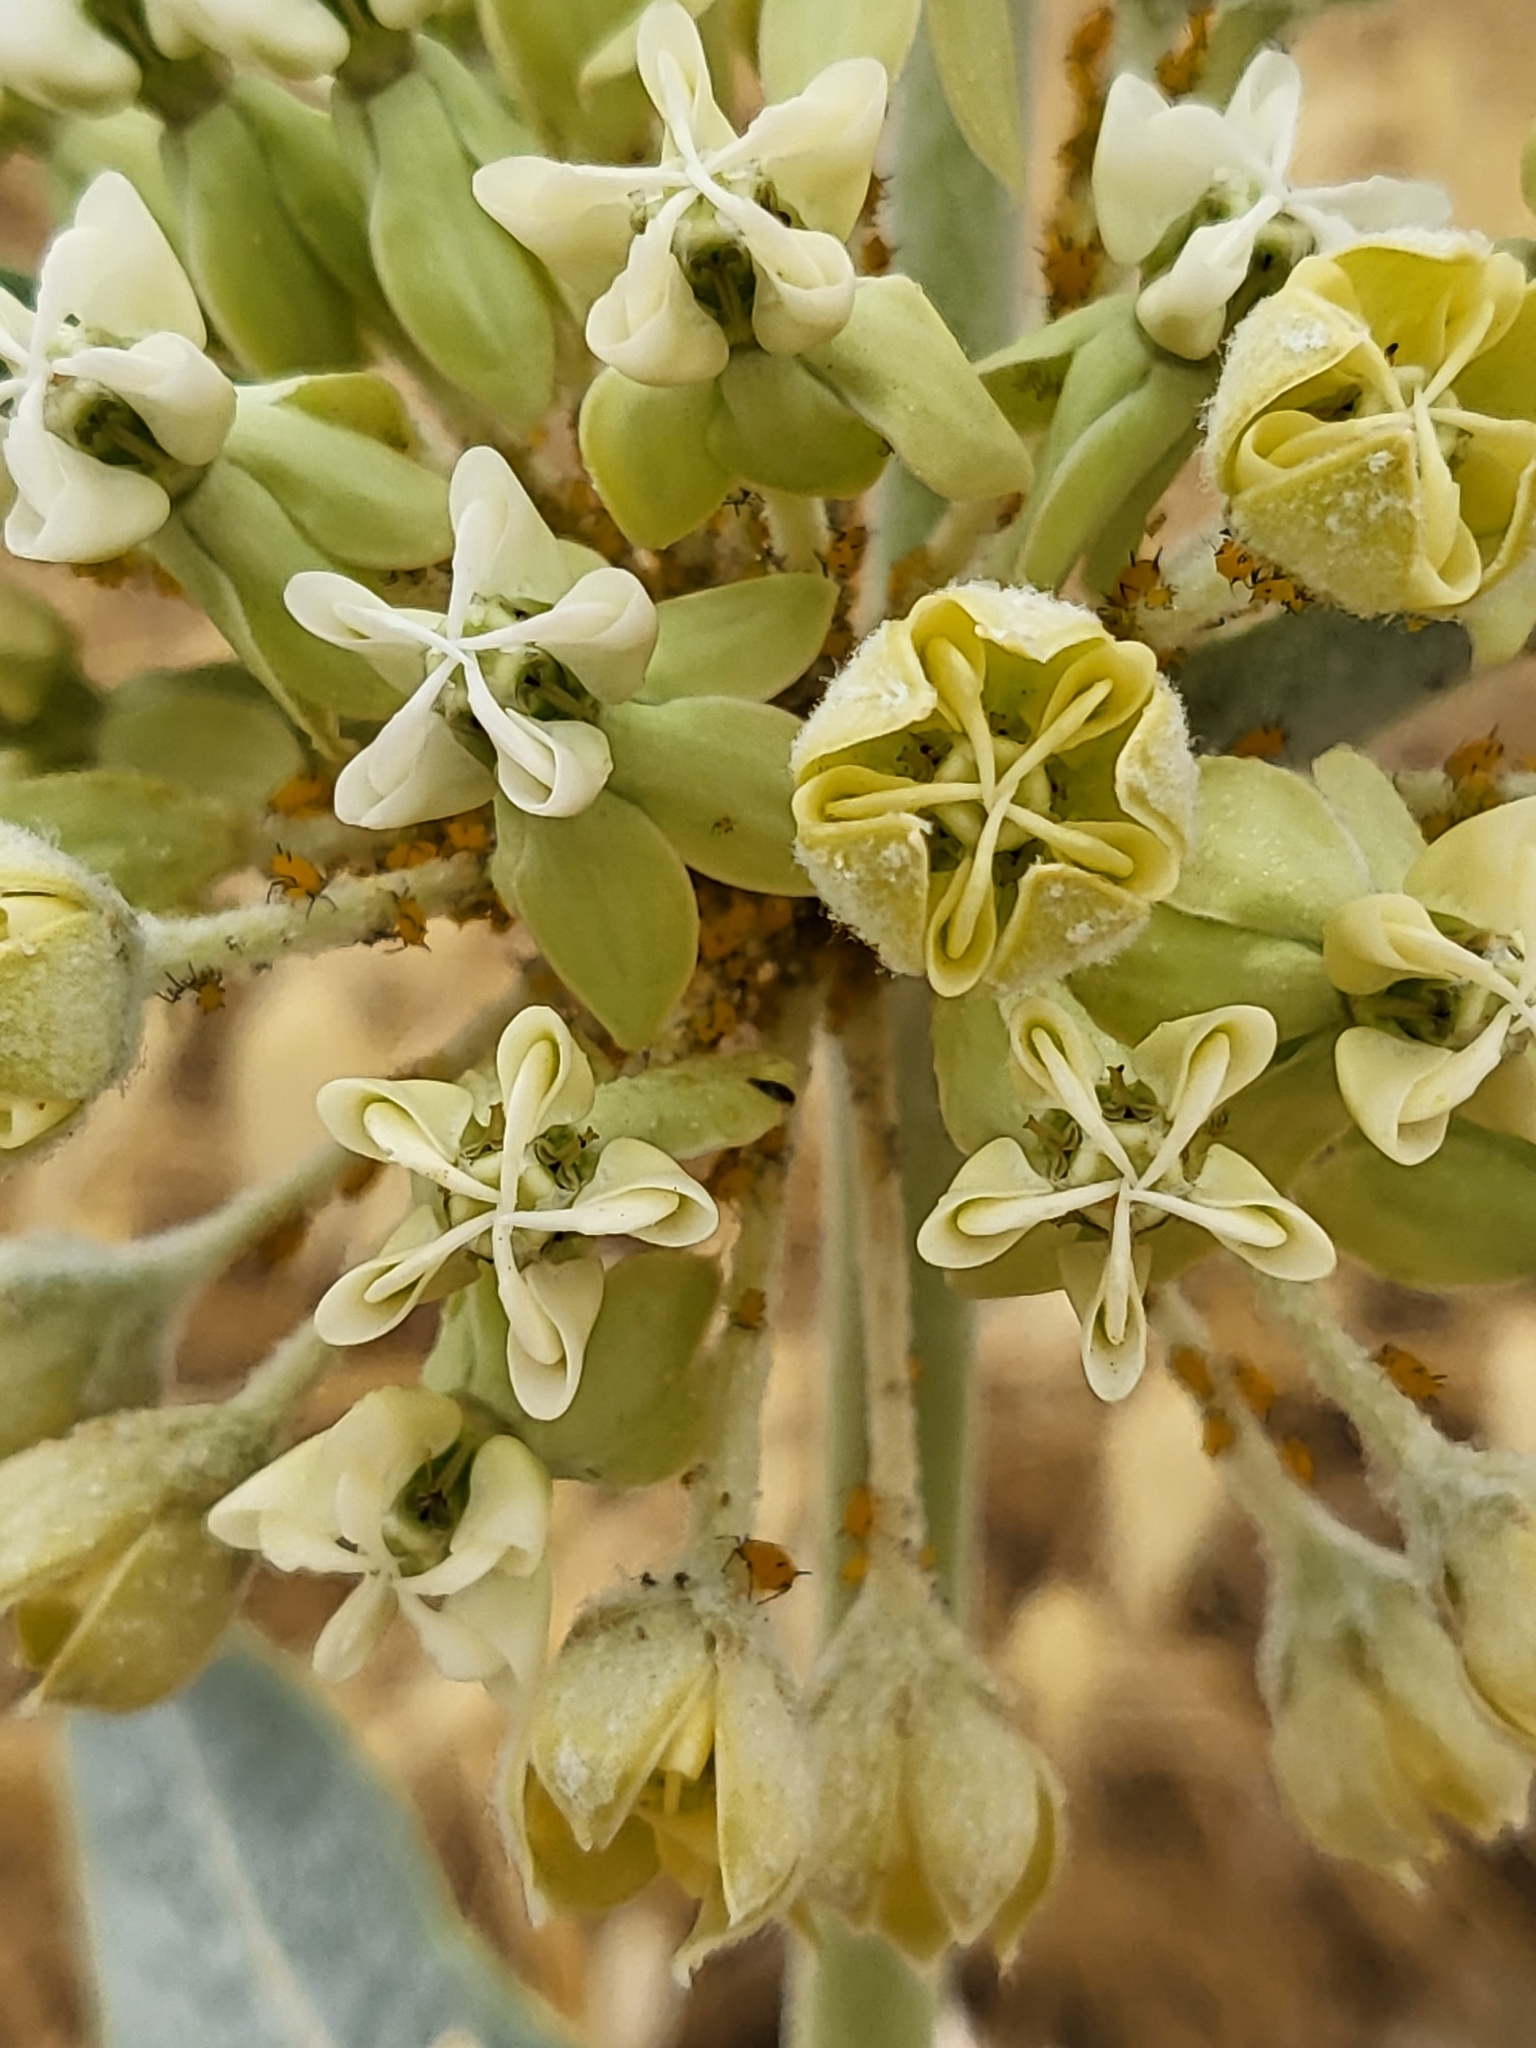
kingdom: Plantae
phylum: Tracheophyta
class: Magnoliopsida
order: Gentianales
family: Apocynaceae
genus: Asclepias
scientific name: Asclepias erosa
